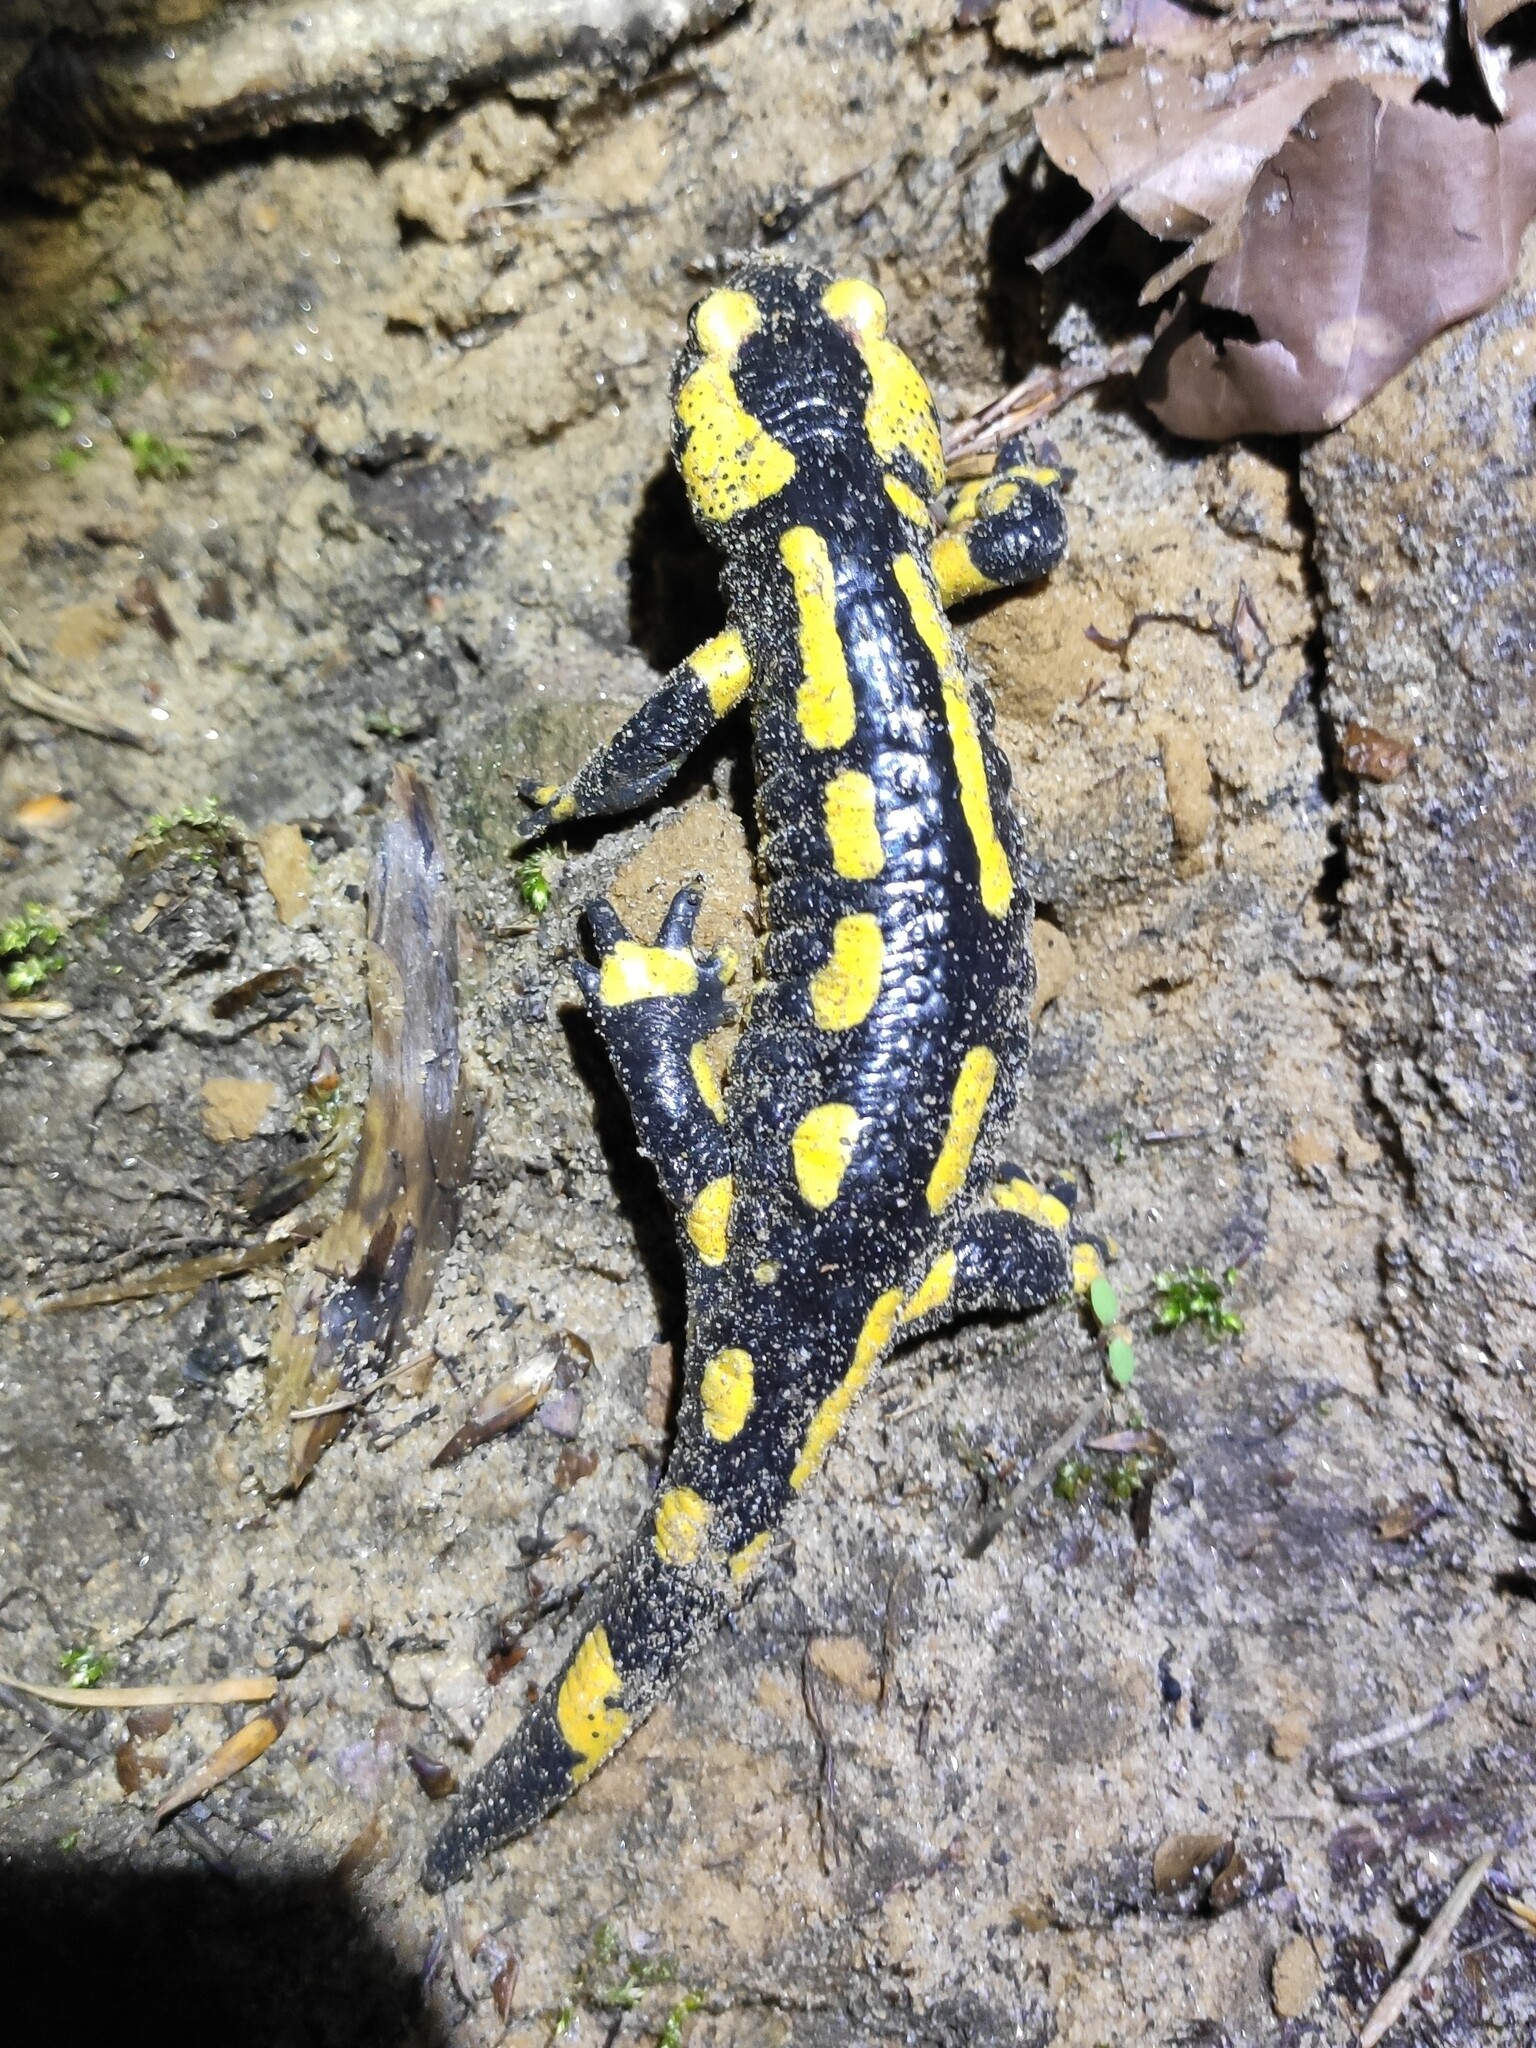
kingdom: Animalia
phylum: Chordata
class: Amphibia
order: Caudata
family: Salamandridae
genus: Salamandra
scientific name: Salamandra salamandra
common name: Fire salamander
